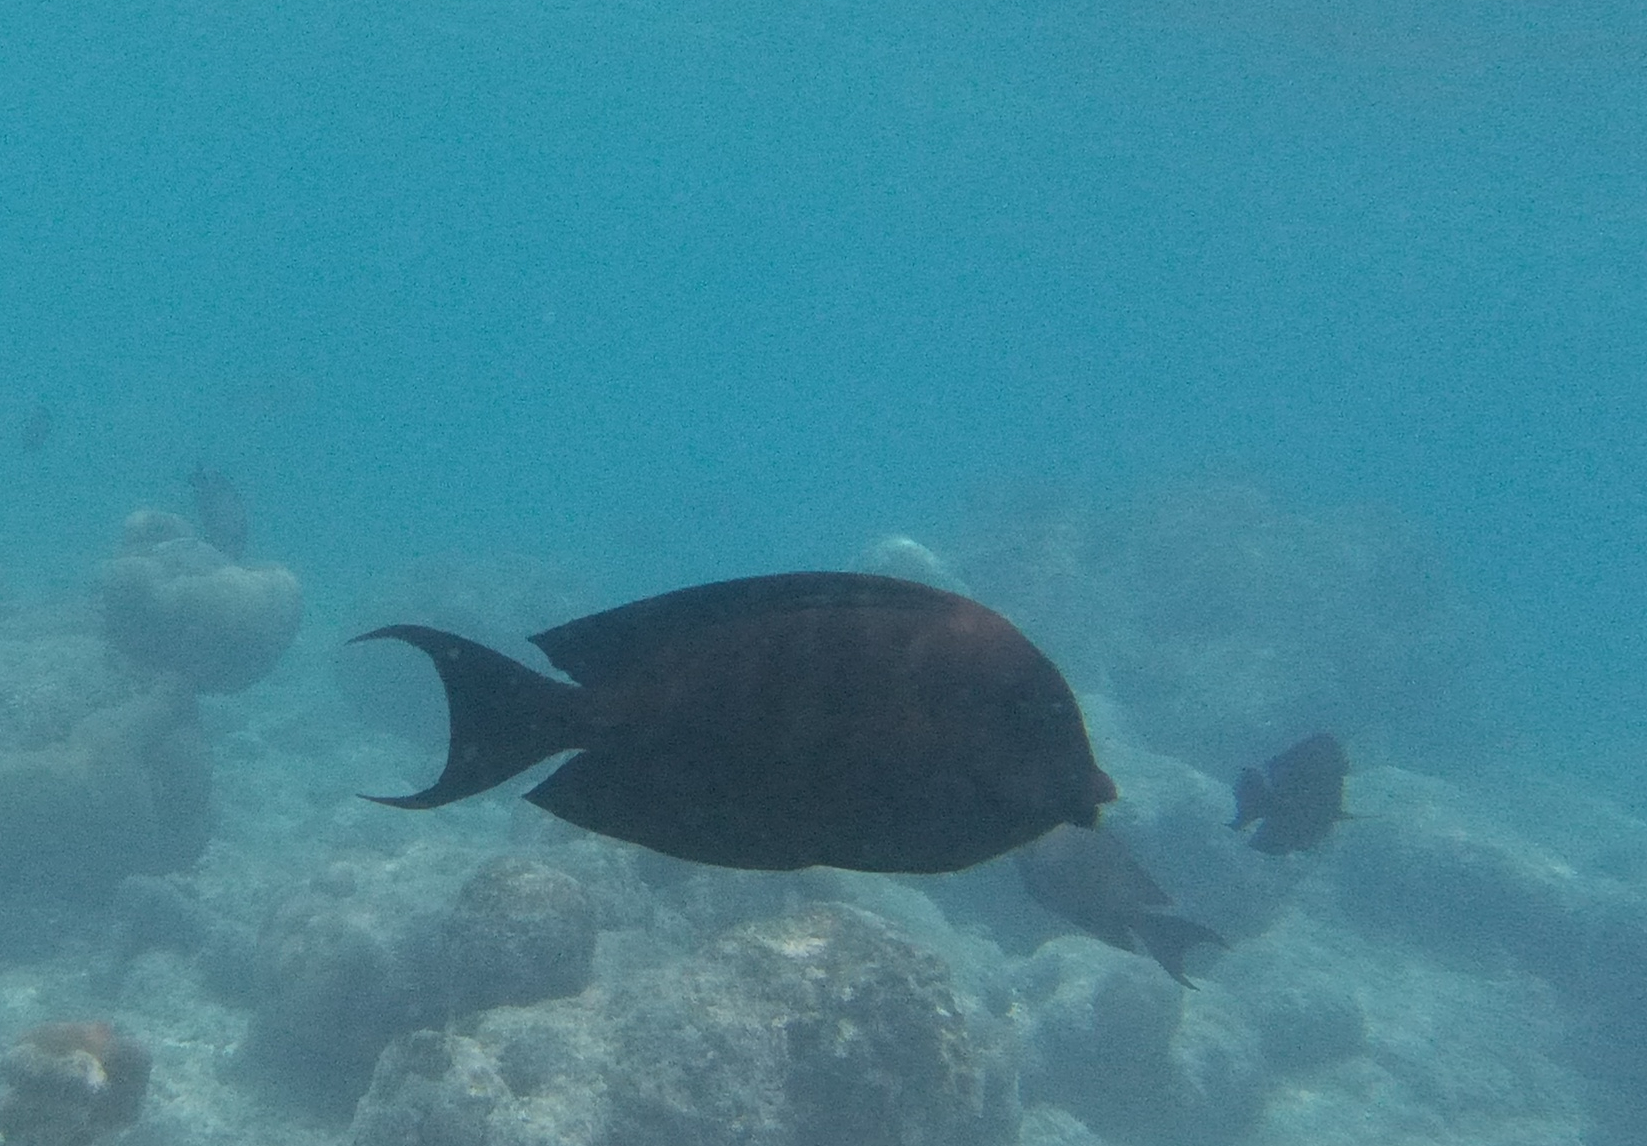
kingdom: Animalia
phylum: Chordata
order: Perciformes
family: Acanthuridae
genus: Ctenochaetus
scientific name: Ctenochaetus striatus
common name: Bristle-toothed surgeonfish
